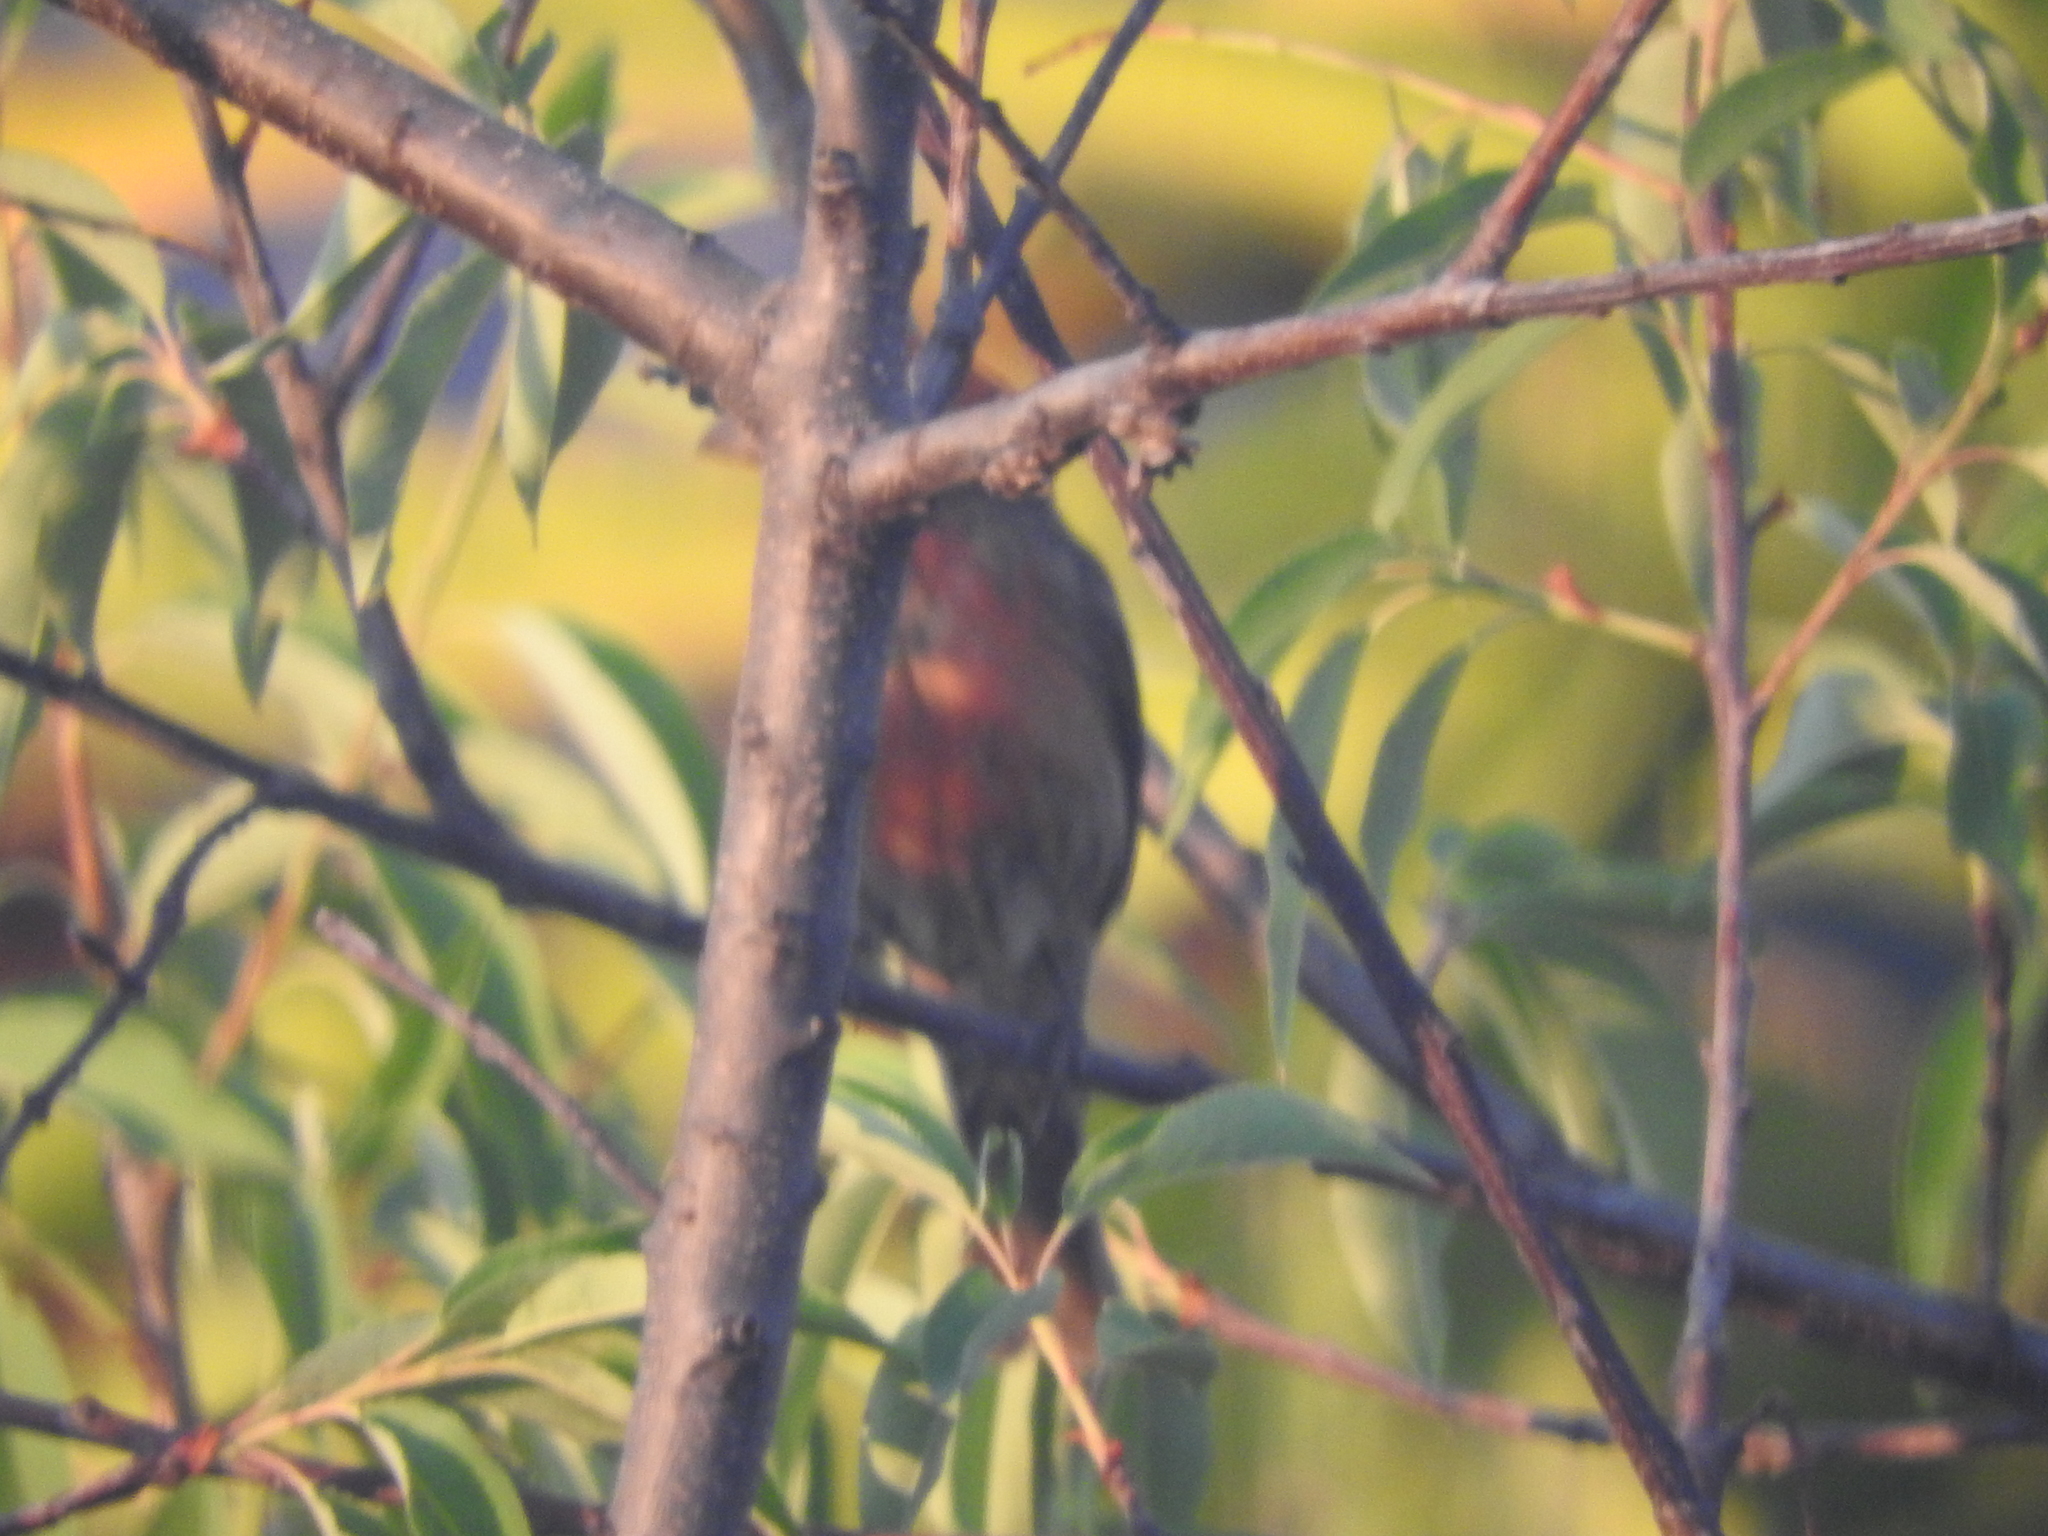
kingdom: Animalia
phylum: Chordata
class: Aves
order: Passeriformes
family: Fringillidae
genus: Haemorhous
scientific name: Haemorhous mexicanus
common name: House finch
